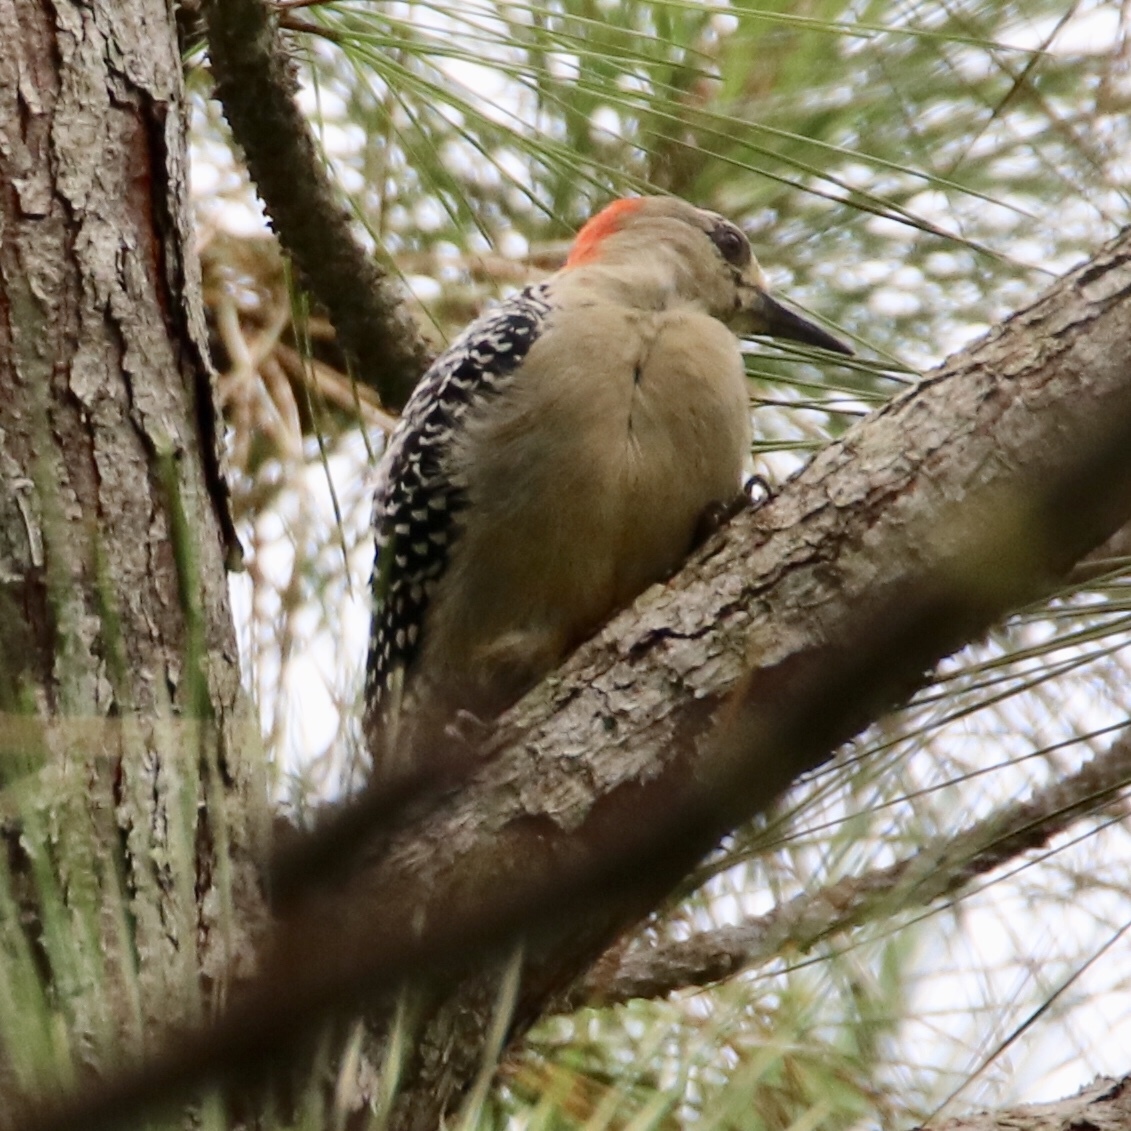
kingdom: Animalia
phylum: Chordata
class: Aves
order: Piciformes
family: Picidae
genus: Melanerpes
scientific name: Melanerpes rubricapillus
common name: Red-crowned woodpecker
